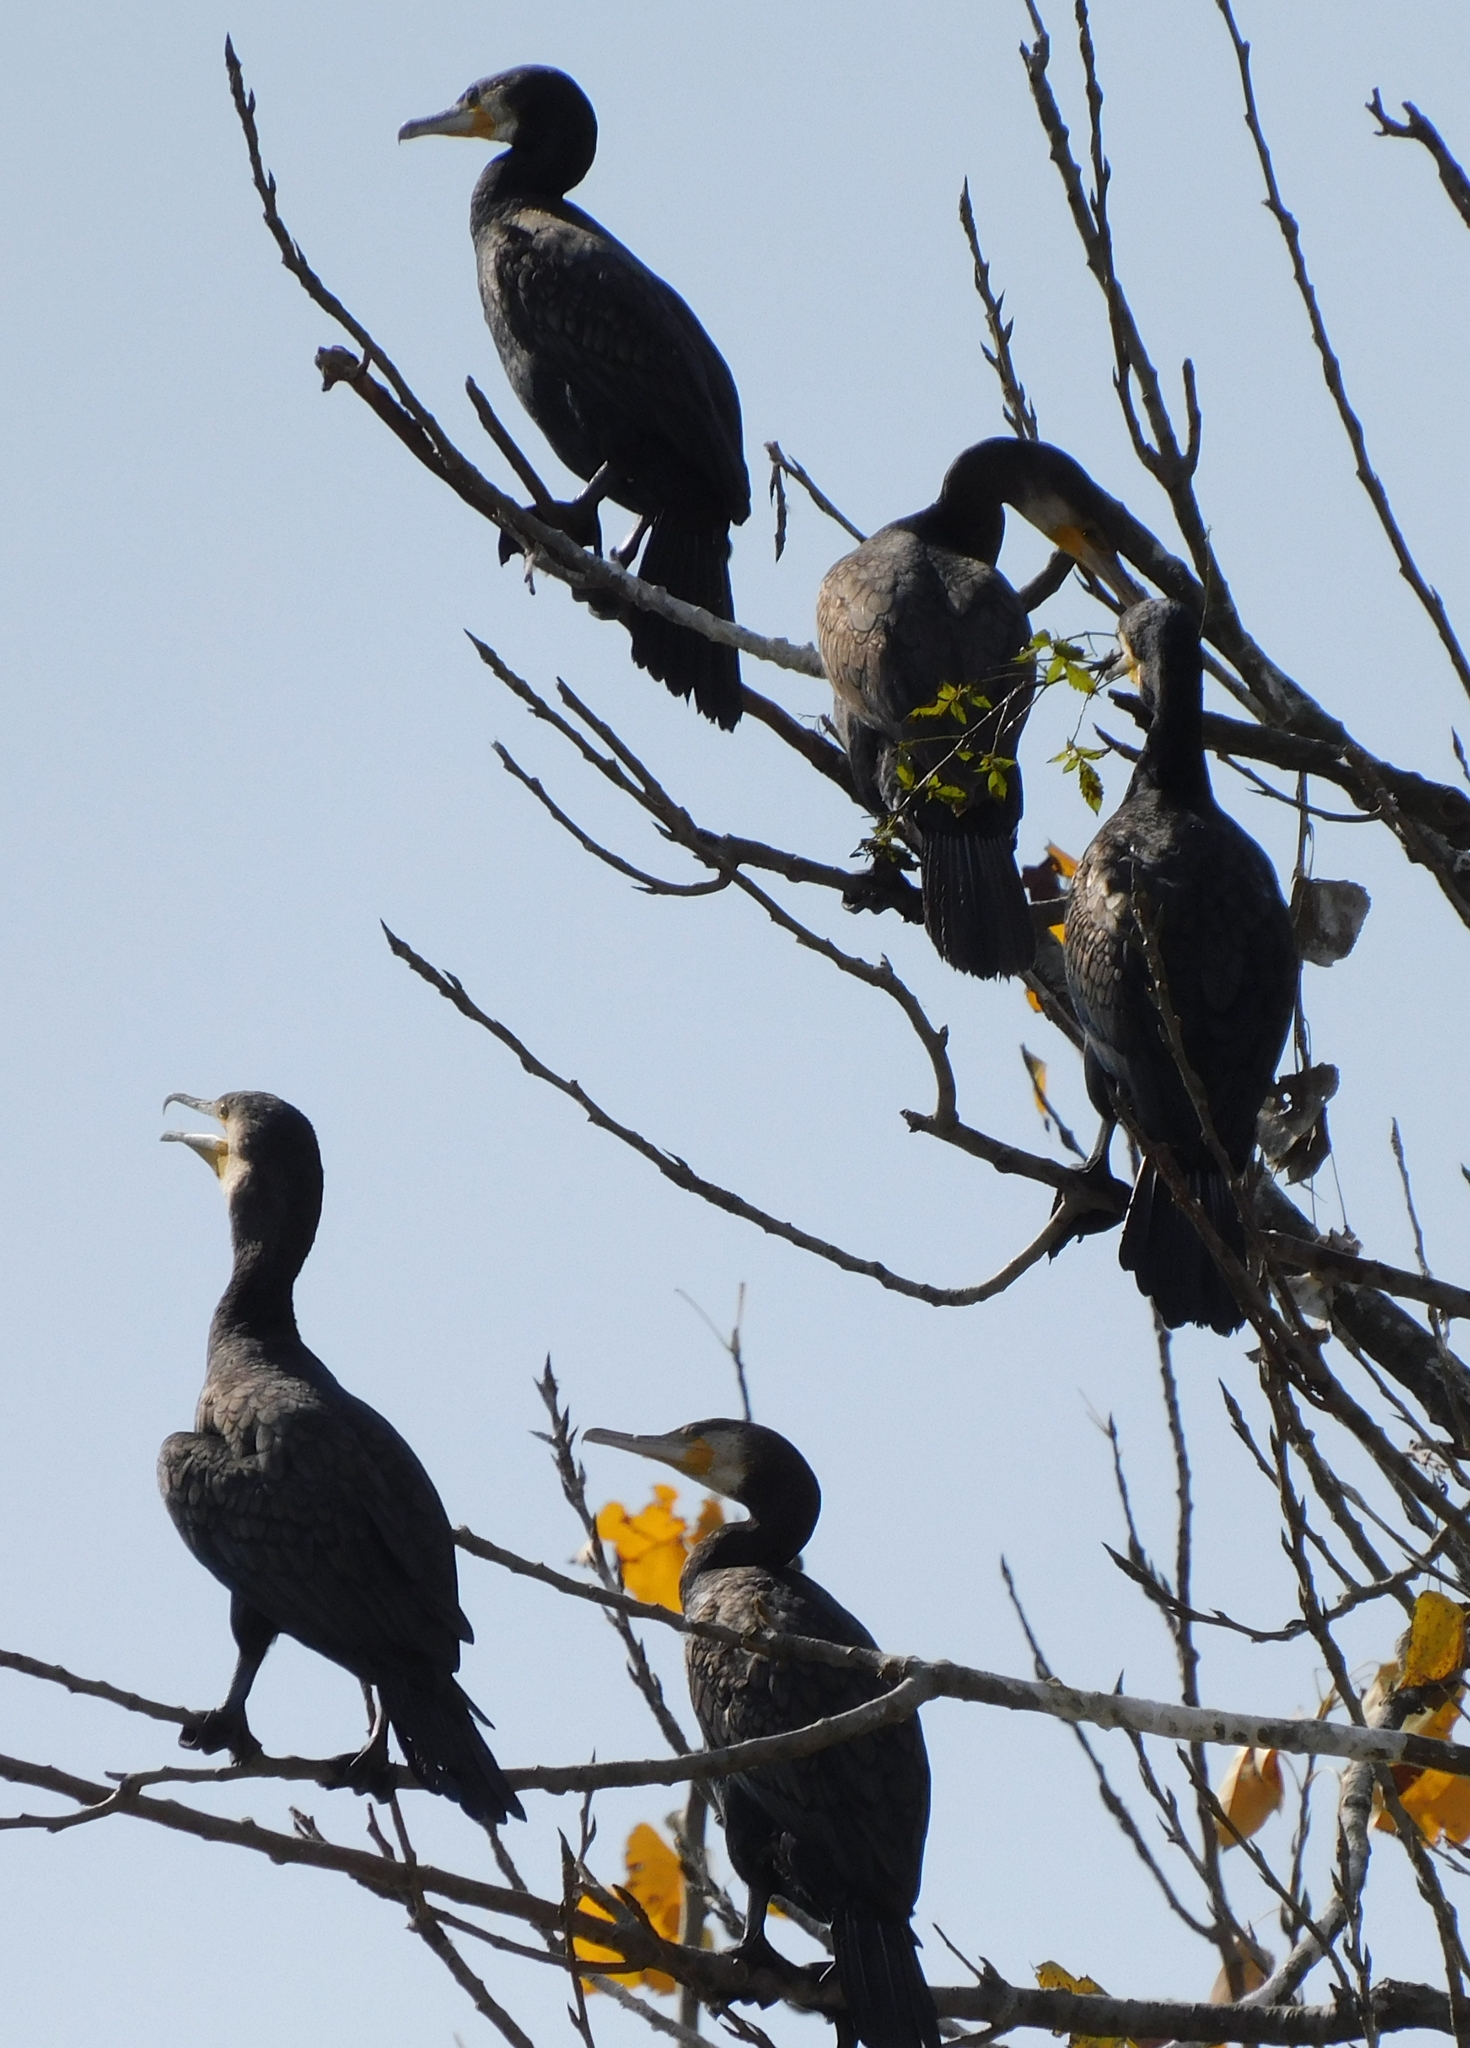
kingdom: Animalia
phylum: Chordata
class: Aves
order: Suliformes
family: Phalacrocoracidae
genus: Phalacrocorax
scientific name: Phalacrocorax carbo
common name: Great cormorant
